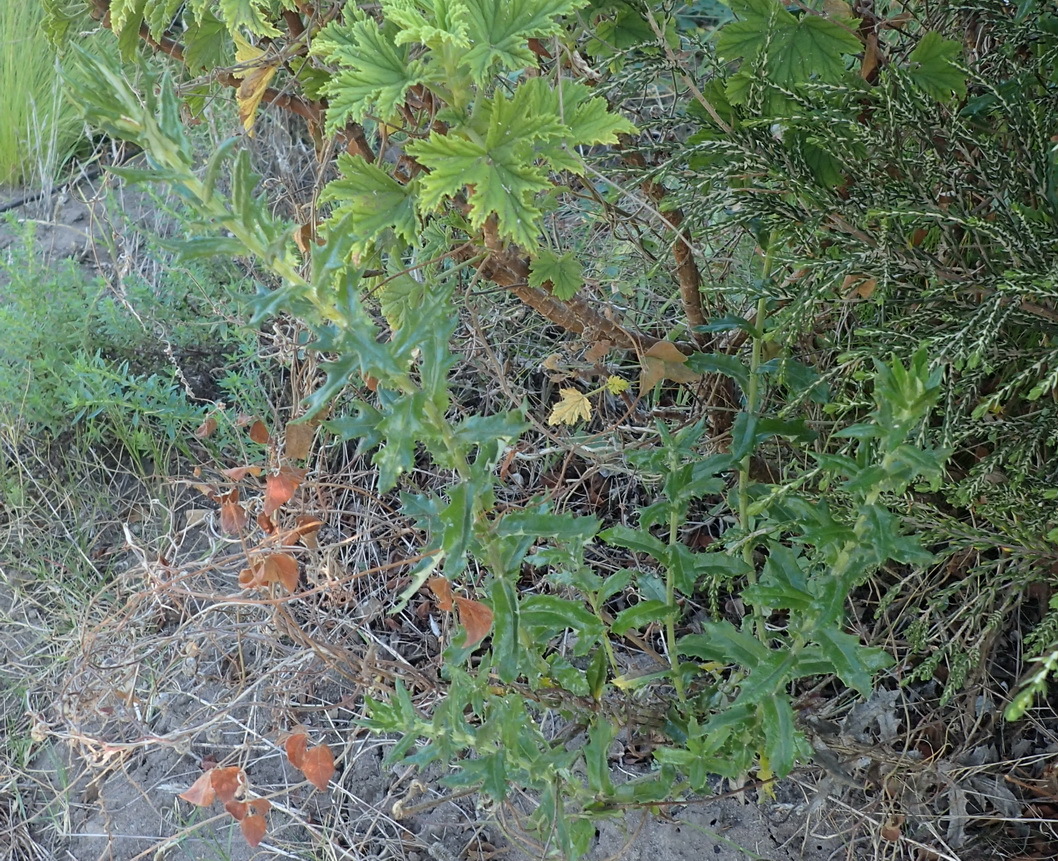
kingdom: Plantae
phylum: Tracheophyta
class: Magnoliopsida
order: Asterales
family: Asteraceae
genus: Senecio
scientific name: Senecio ilicifolius
